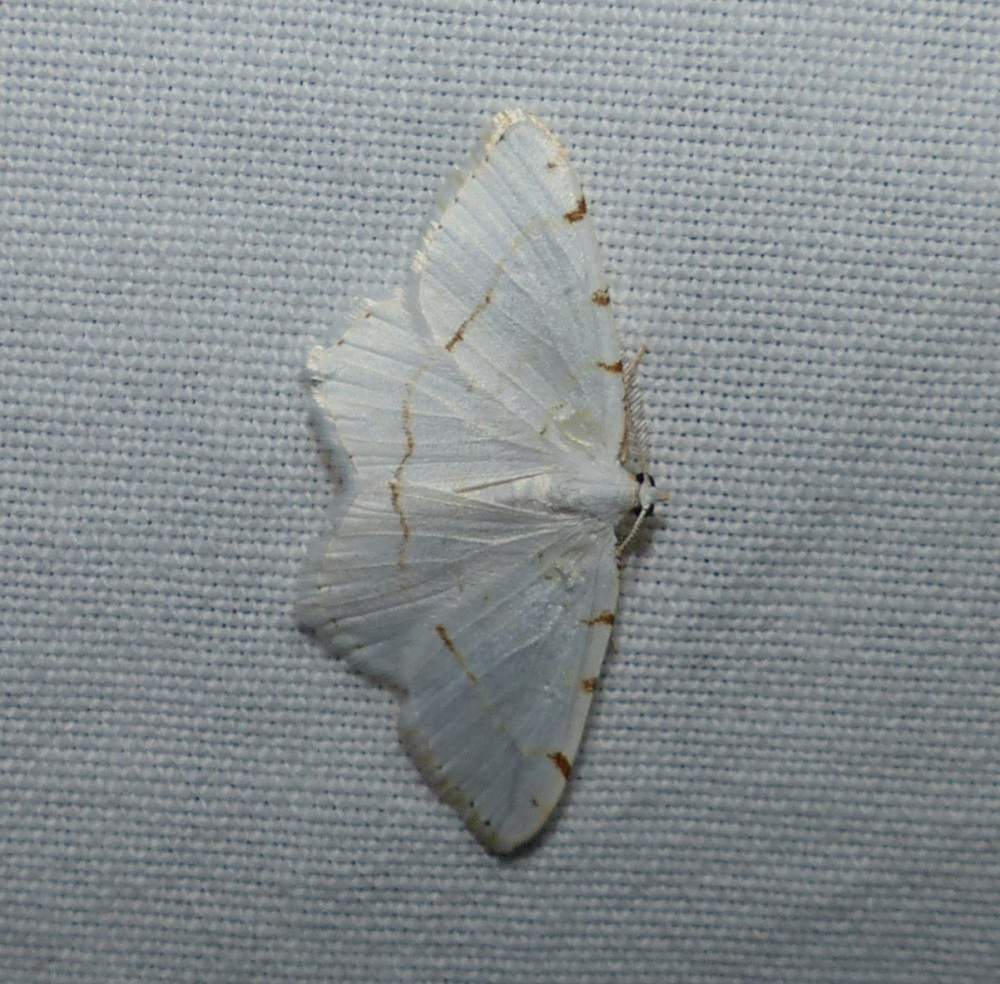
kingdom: Animalia
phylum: Arthropoda
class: Insecta
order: Lepidoptera
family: Geometridae
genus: Macaria
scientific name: Macaria pustularia
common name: Lesser maple spanworm moth
